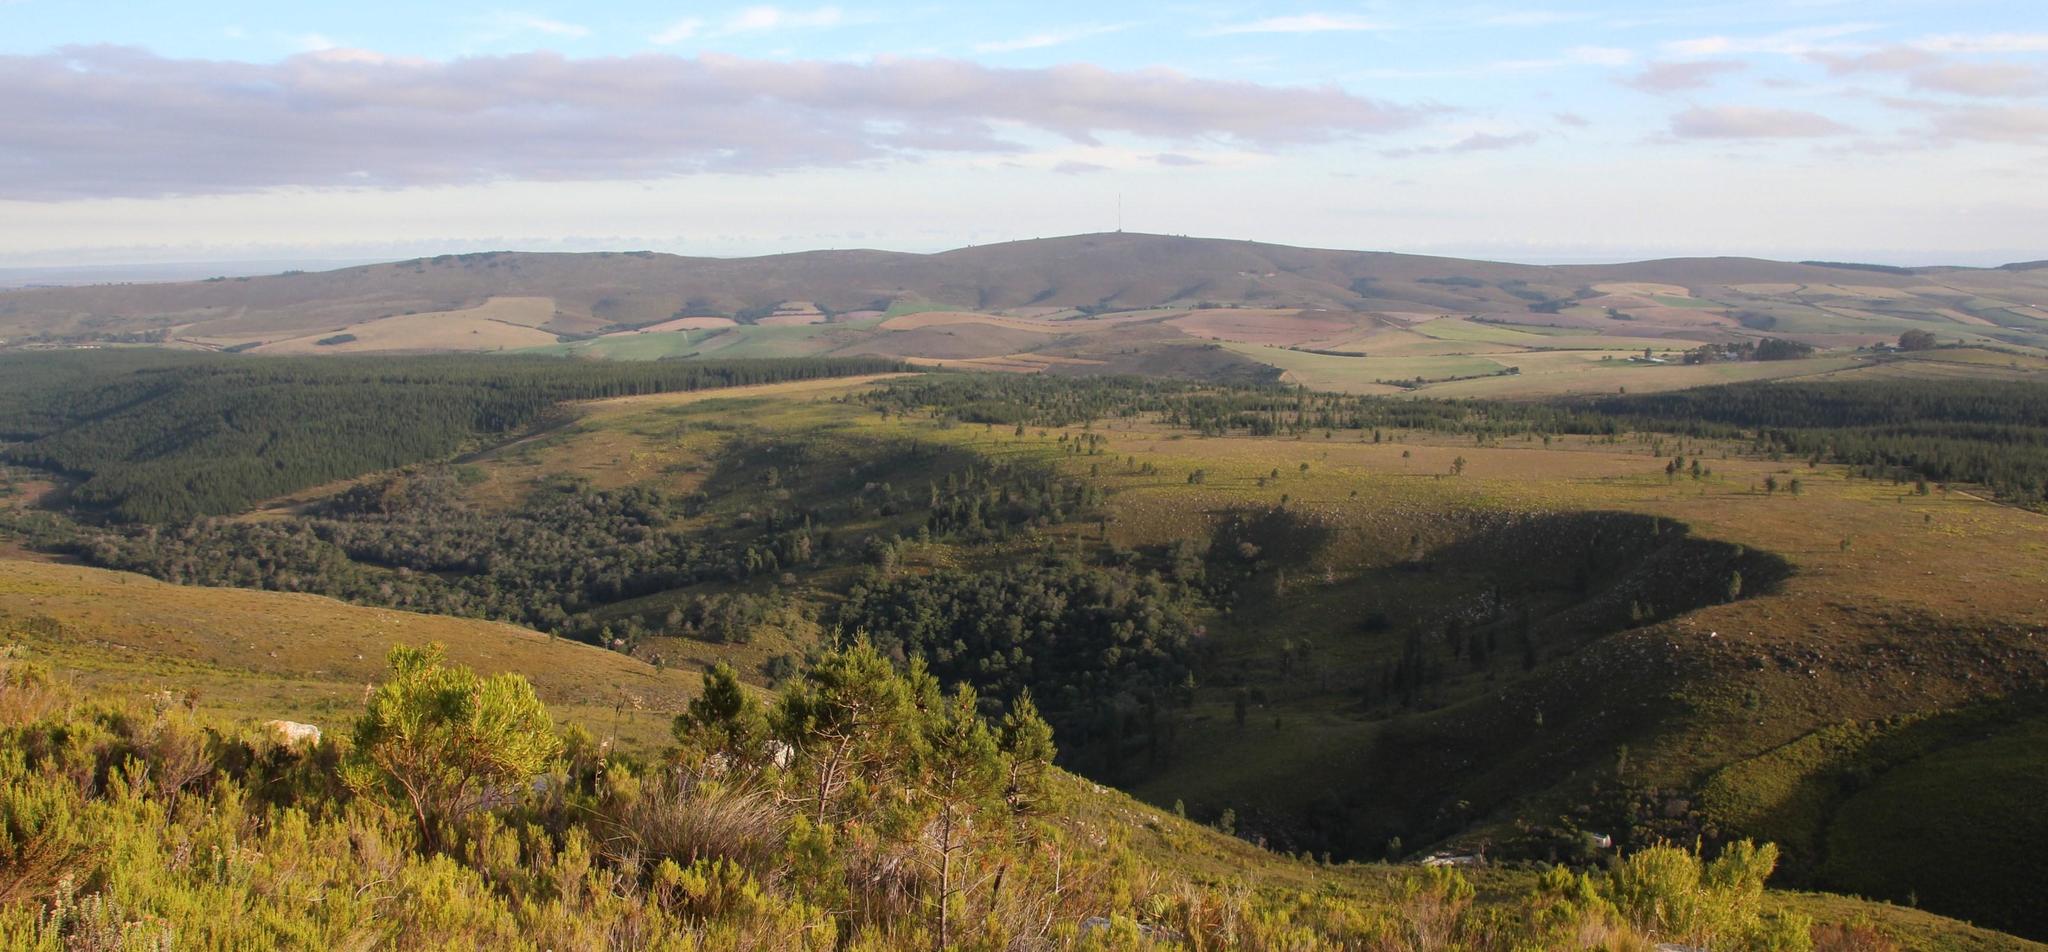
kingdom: Plantae
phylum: Tracheophyta
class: Pinopsida
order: Pinales
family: Pinaceae
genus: Pinus
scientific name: Pinus pinaster
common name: Maritime pine
